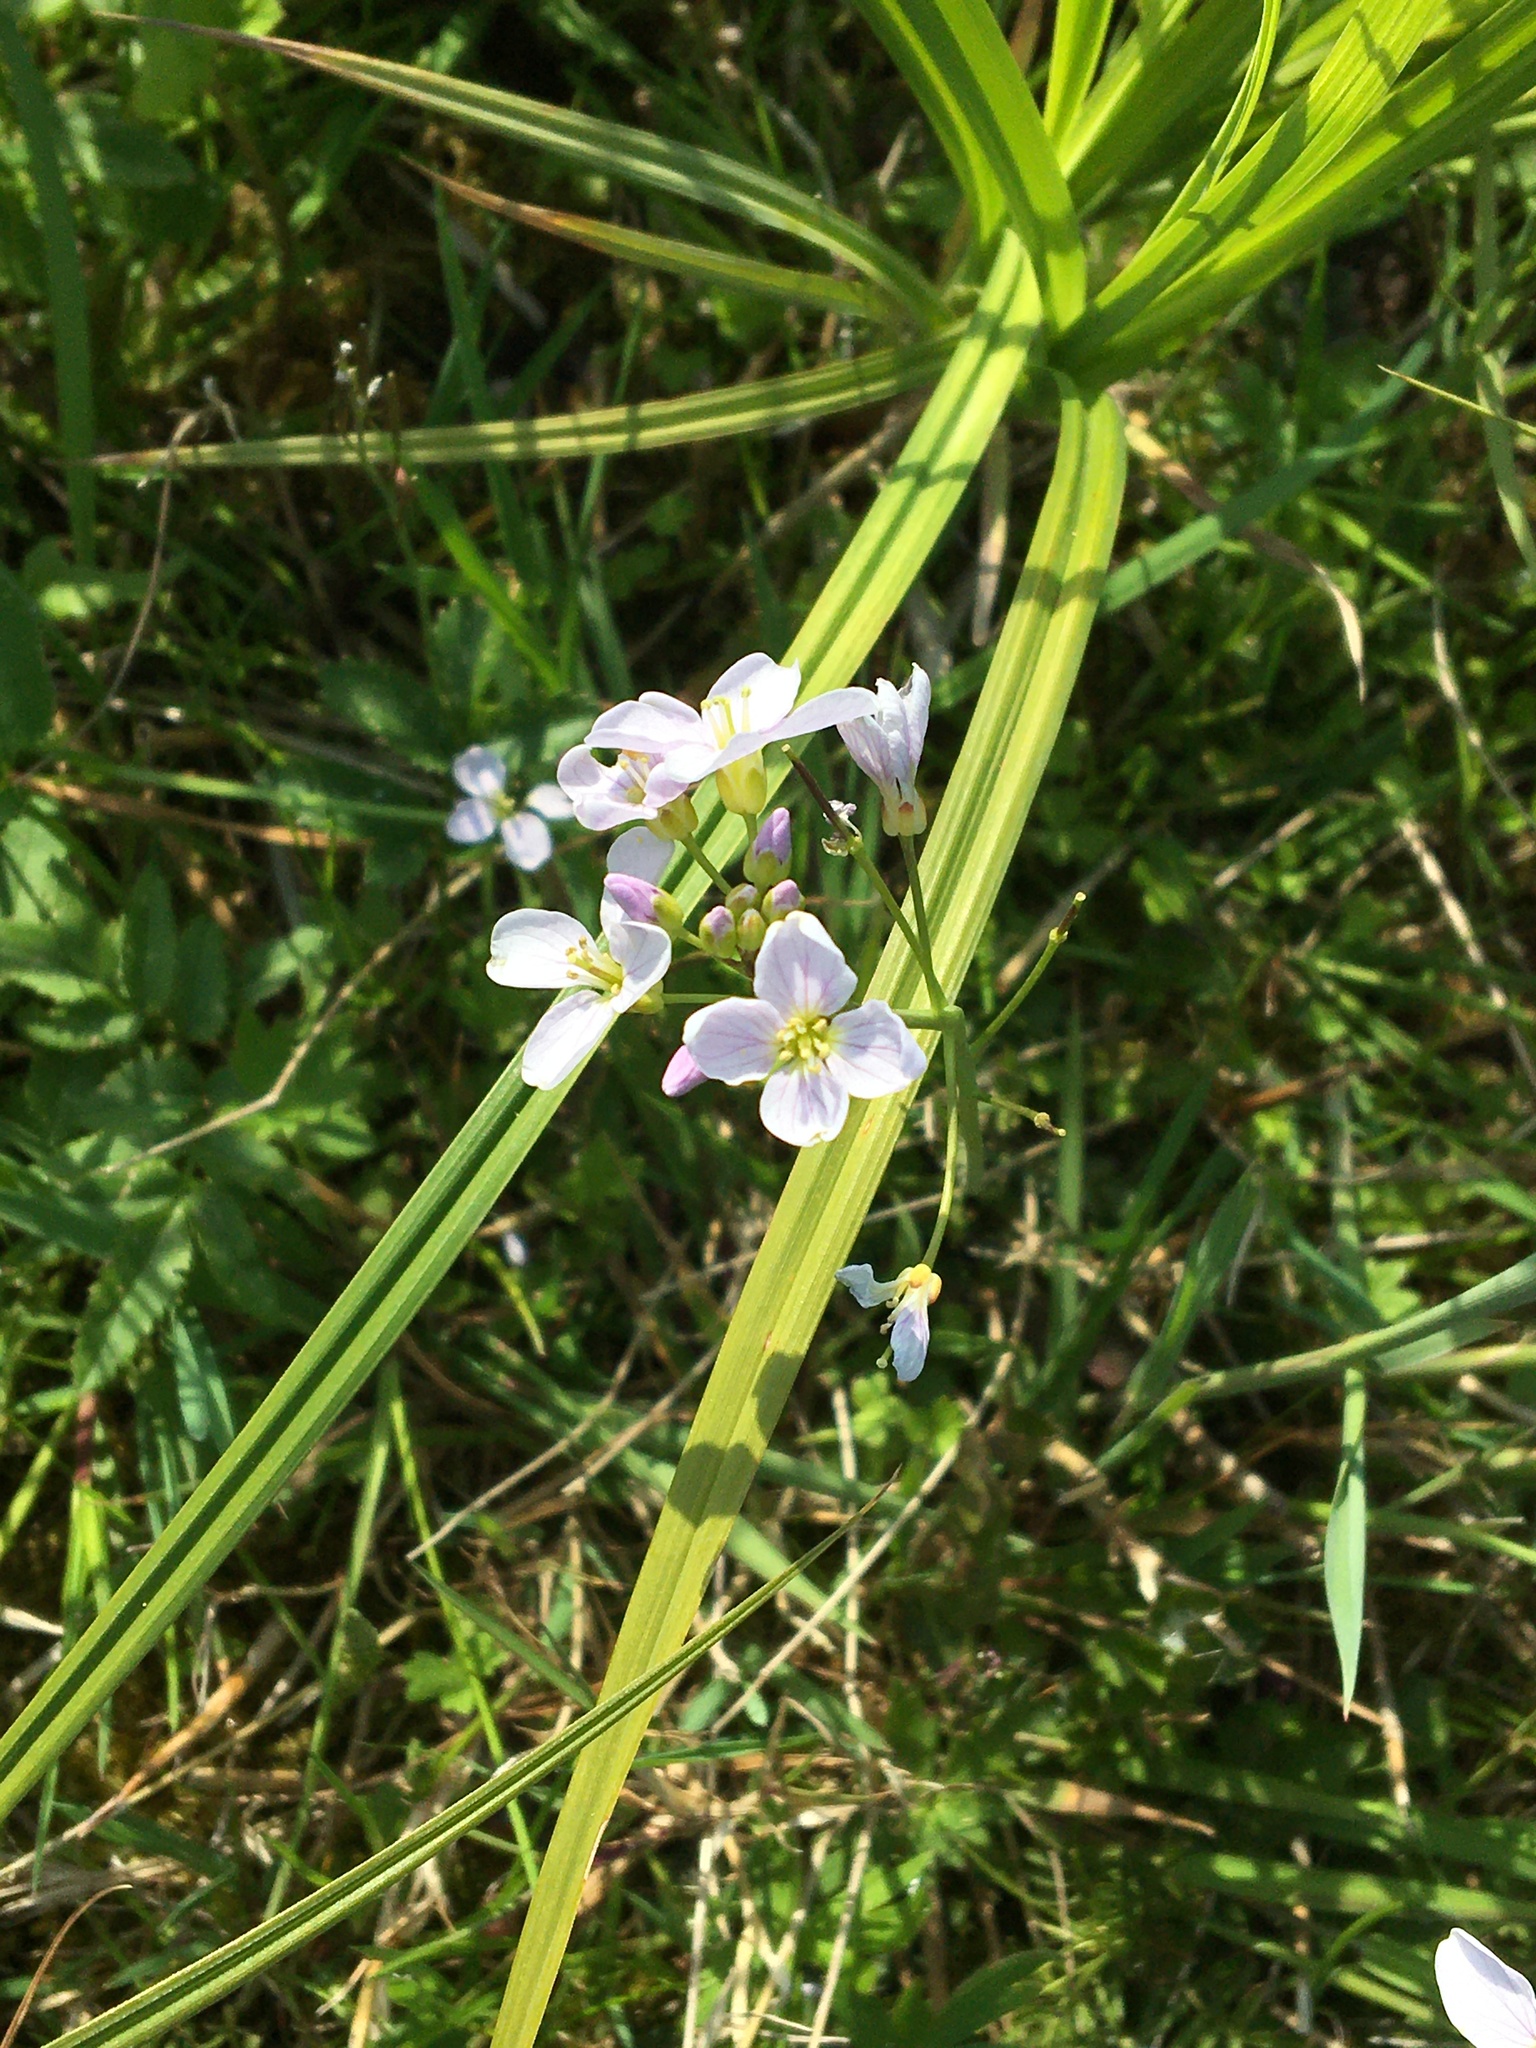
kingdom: Plantae
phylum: Tracheophyta
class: Magnoliopsida
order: Brassicales
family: Brassicaceae
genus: Cardamine
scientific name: Cardamine pratensis
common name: Cuckoo flower
